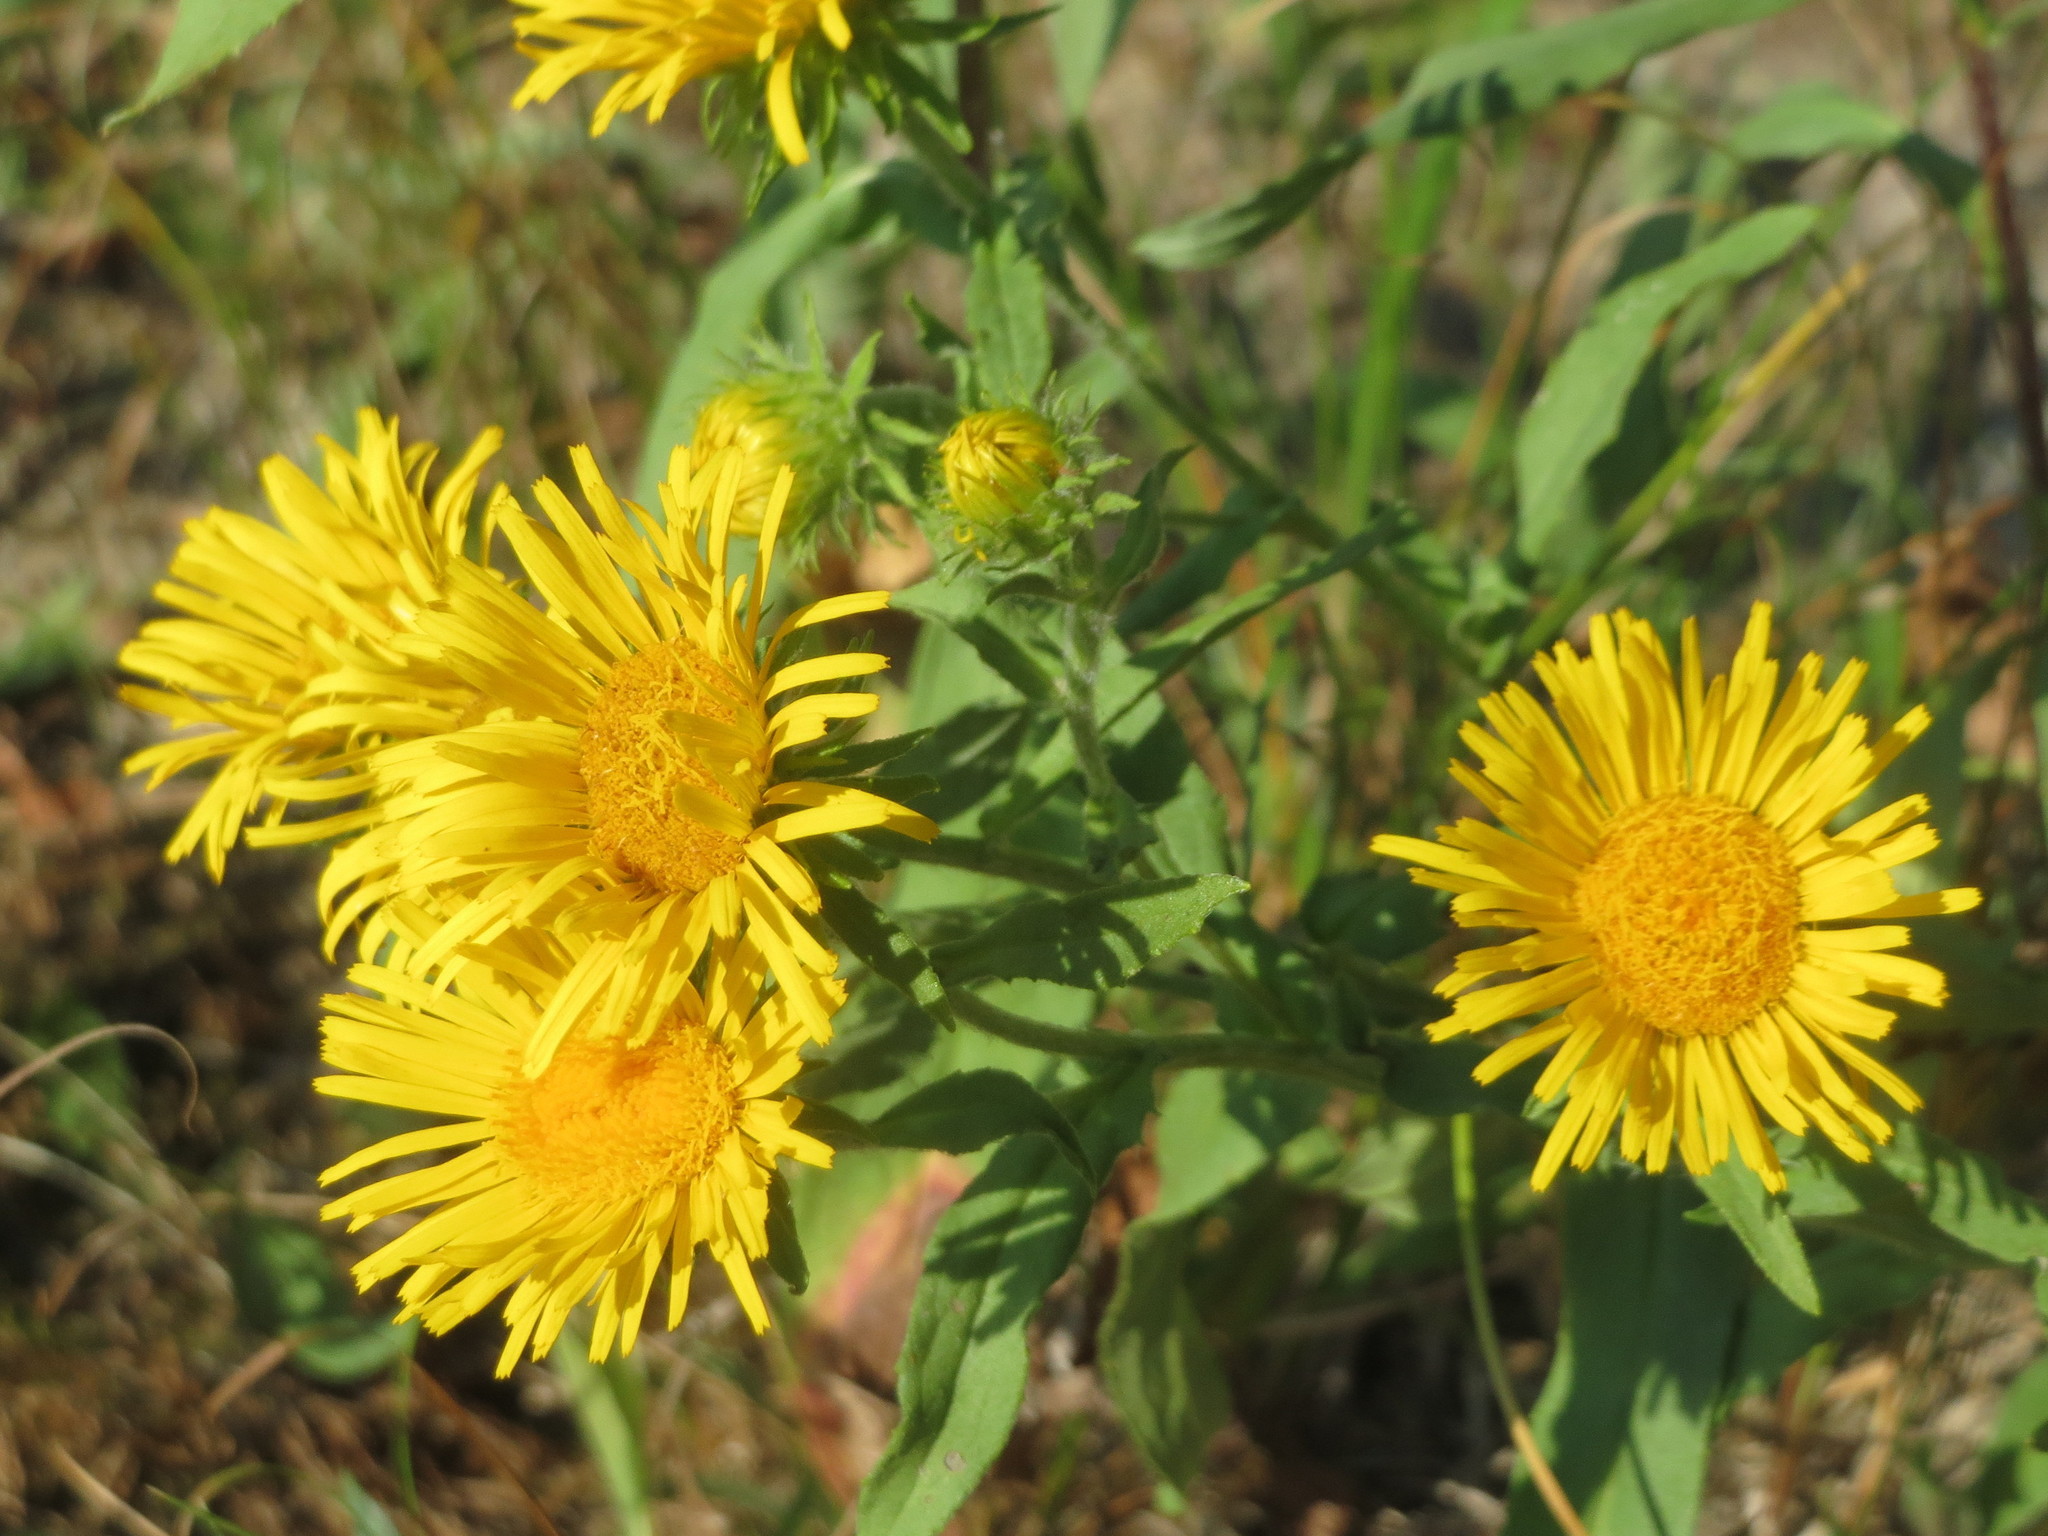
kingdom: Plantae
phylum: Tracheophyta
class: Magnoliopsida
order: Asterales
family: Asteraceae
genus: Pentanema
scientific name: Pentanema britannicum
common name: British elecampane
